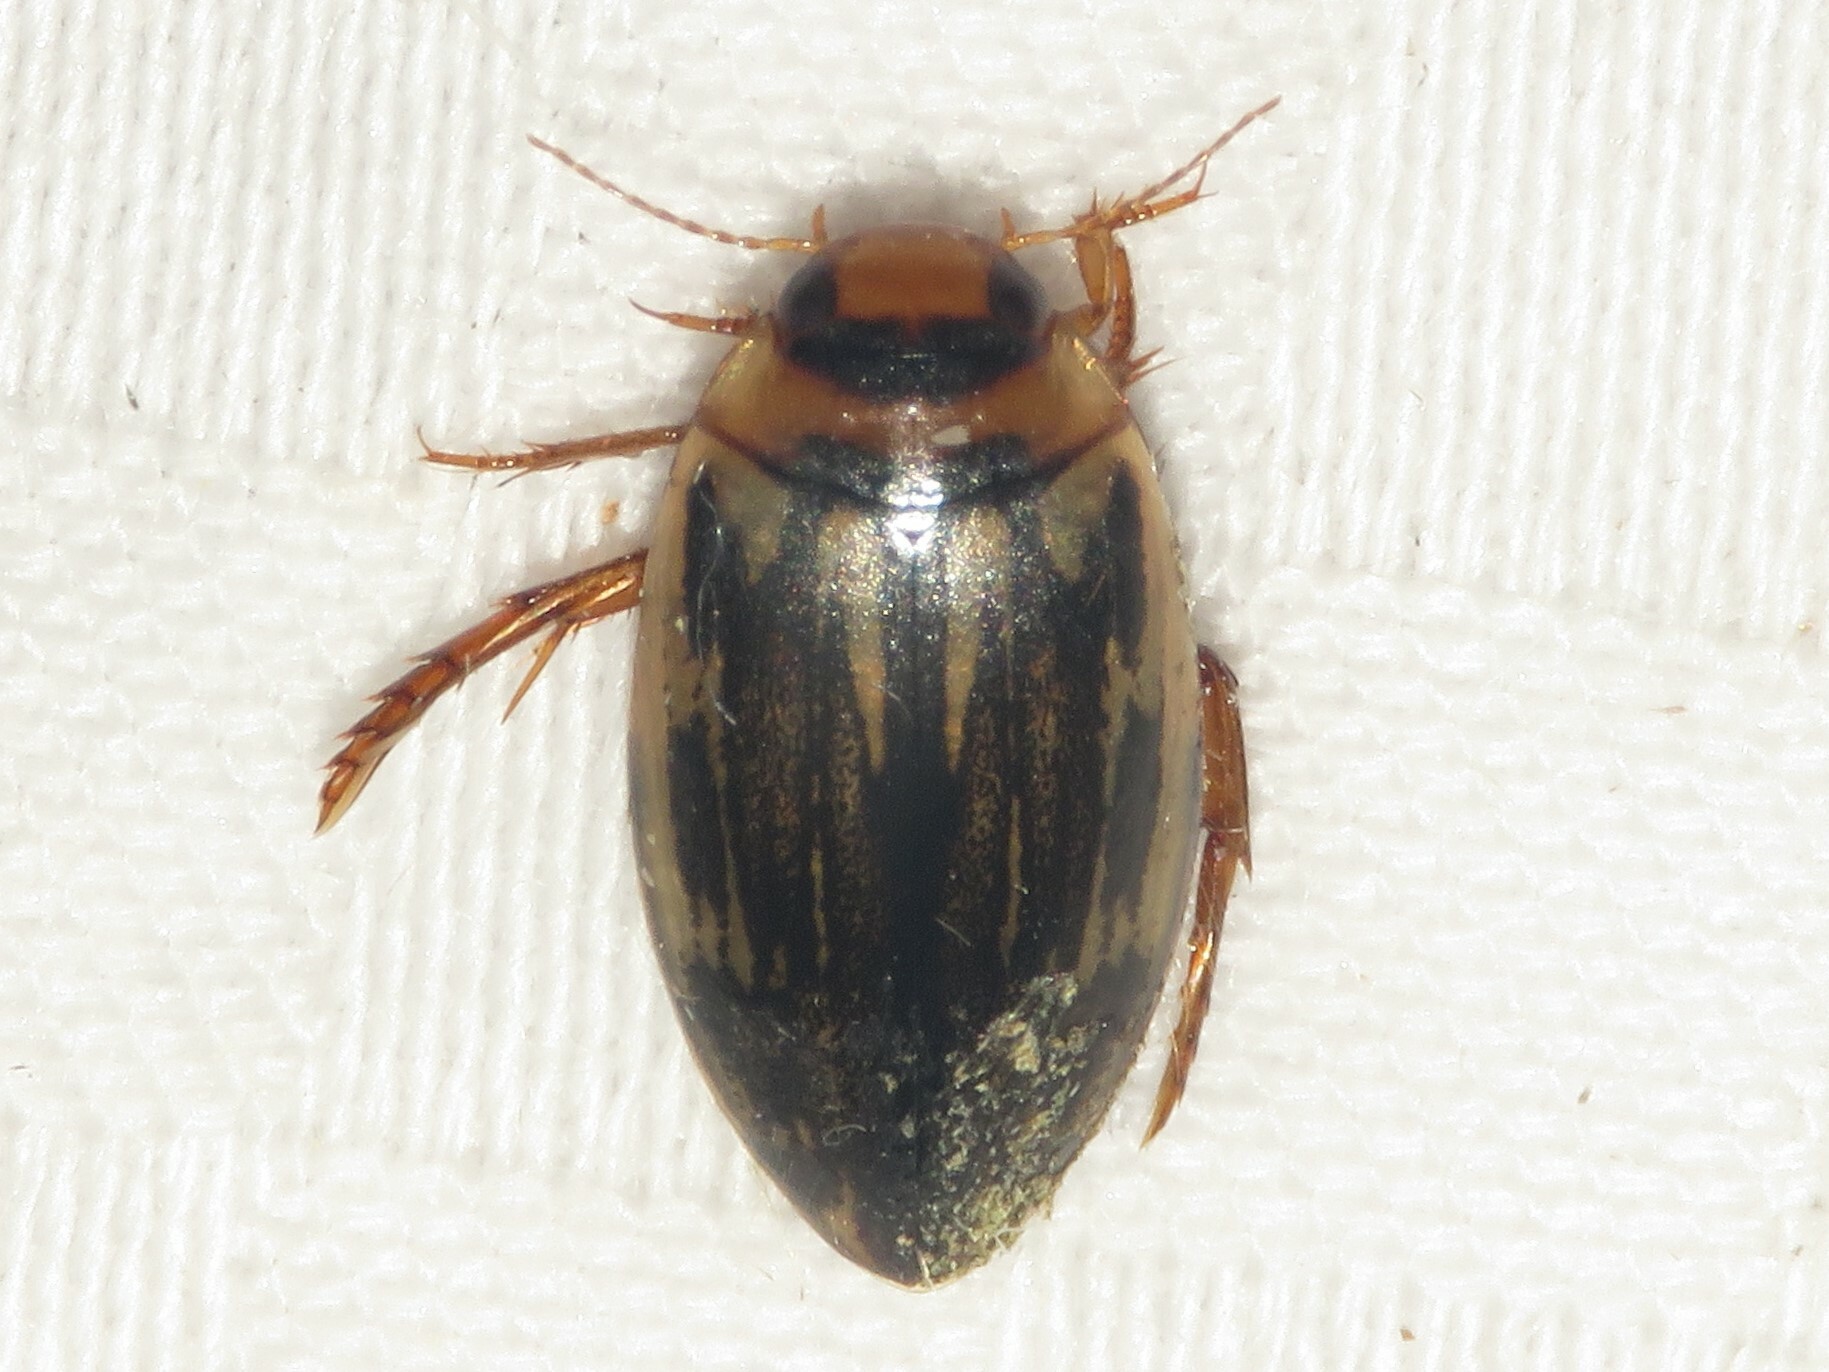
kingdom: Animalia
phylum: Arthropoda
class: Insecta
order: Coleoptera
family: Dytiscidae
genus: Coptotomus
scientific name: Coptotomus longulus
